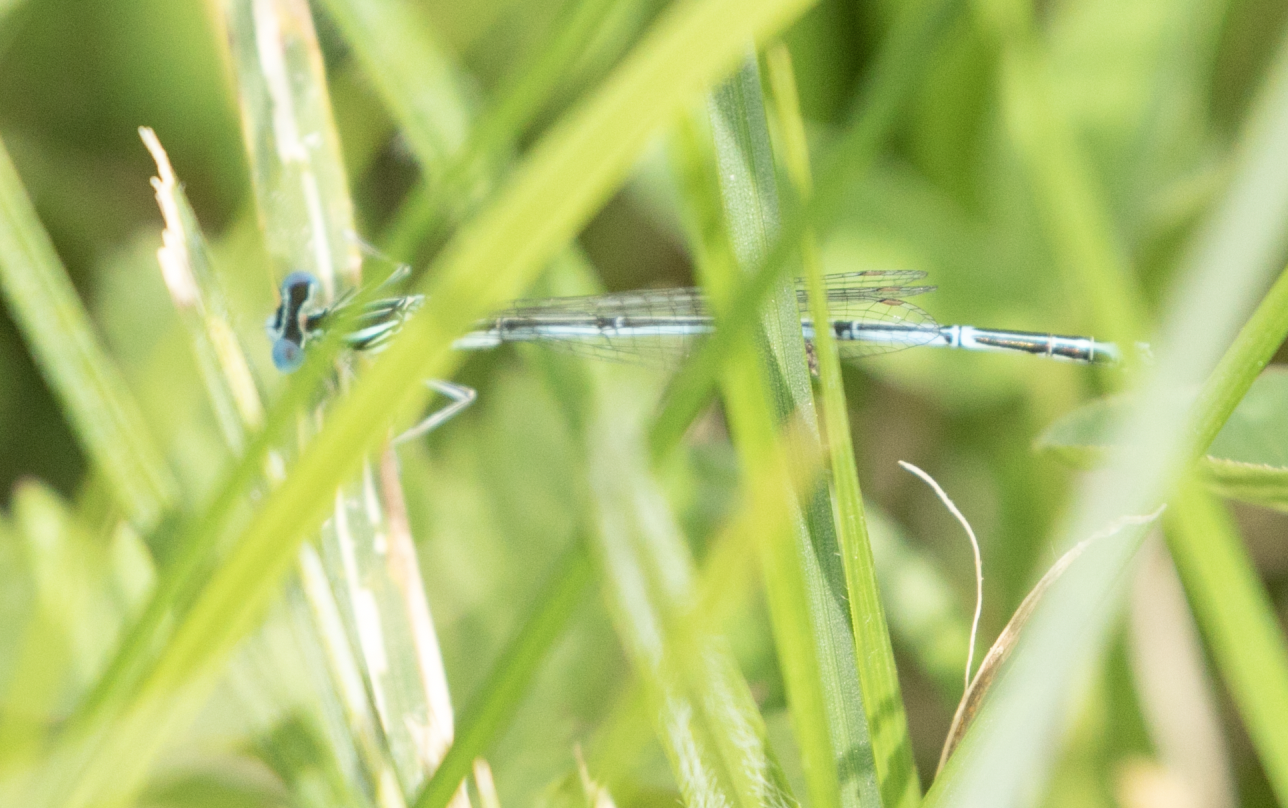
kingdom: Animalia
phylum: Arthropoda
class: Insecta
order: Odonata
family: Platycnemididae
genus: Platycnemis
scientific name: Platycnemis pennipes
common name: White-legged damselfly
